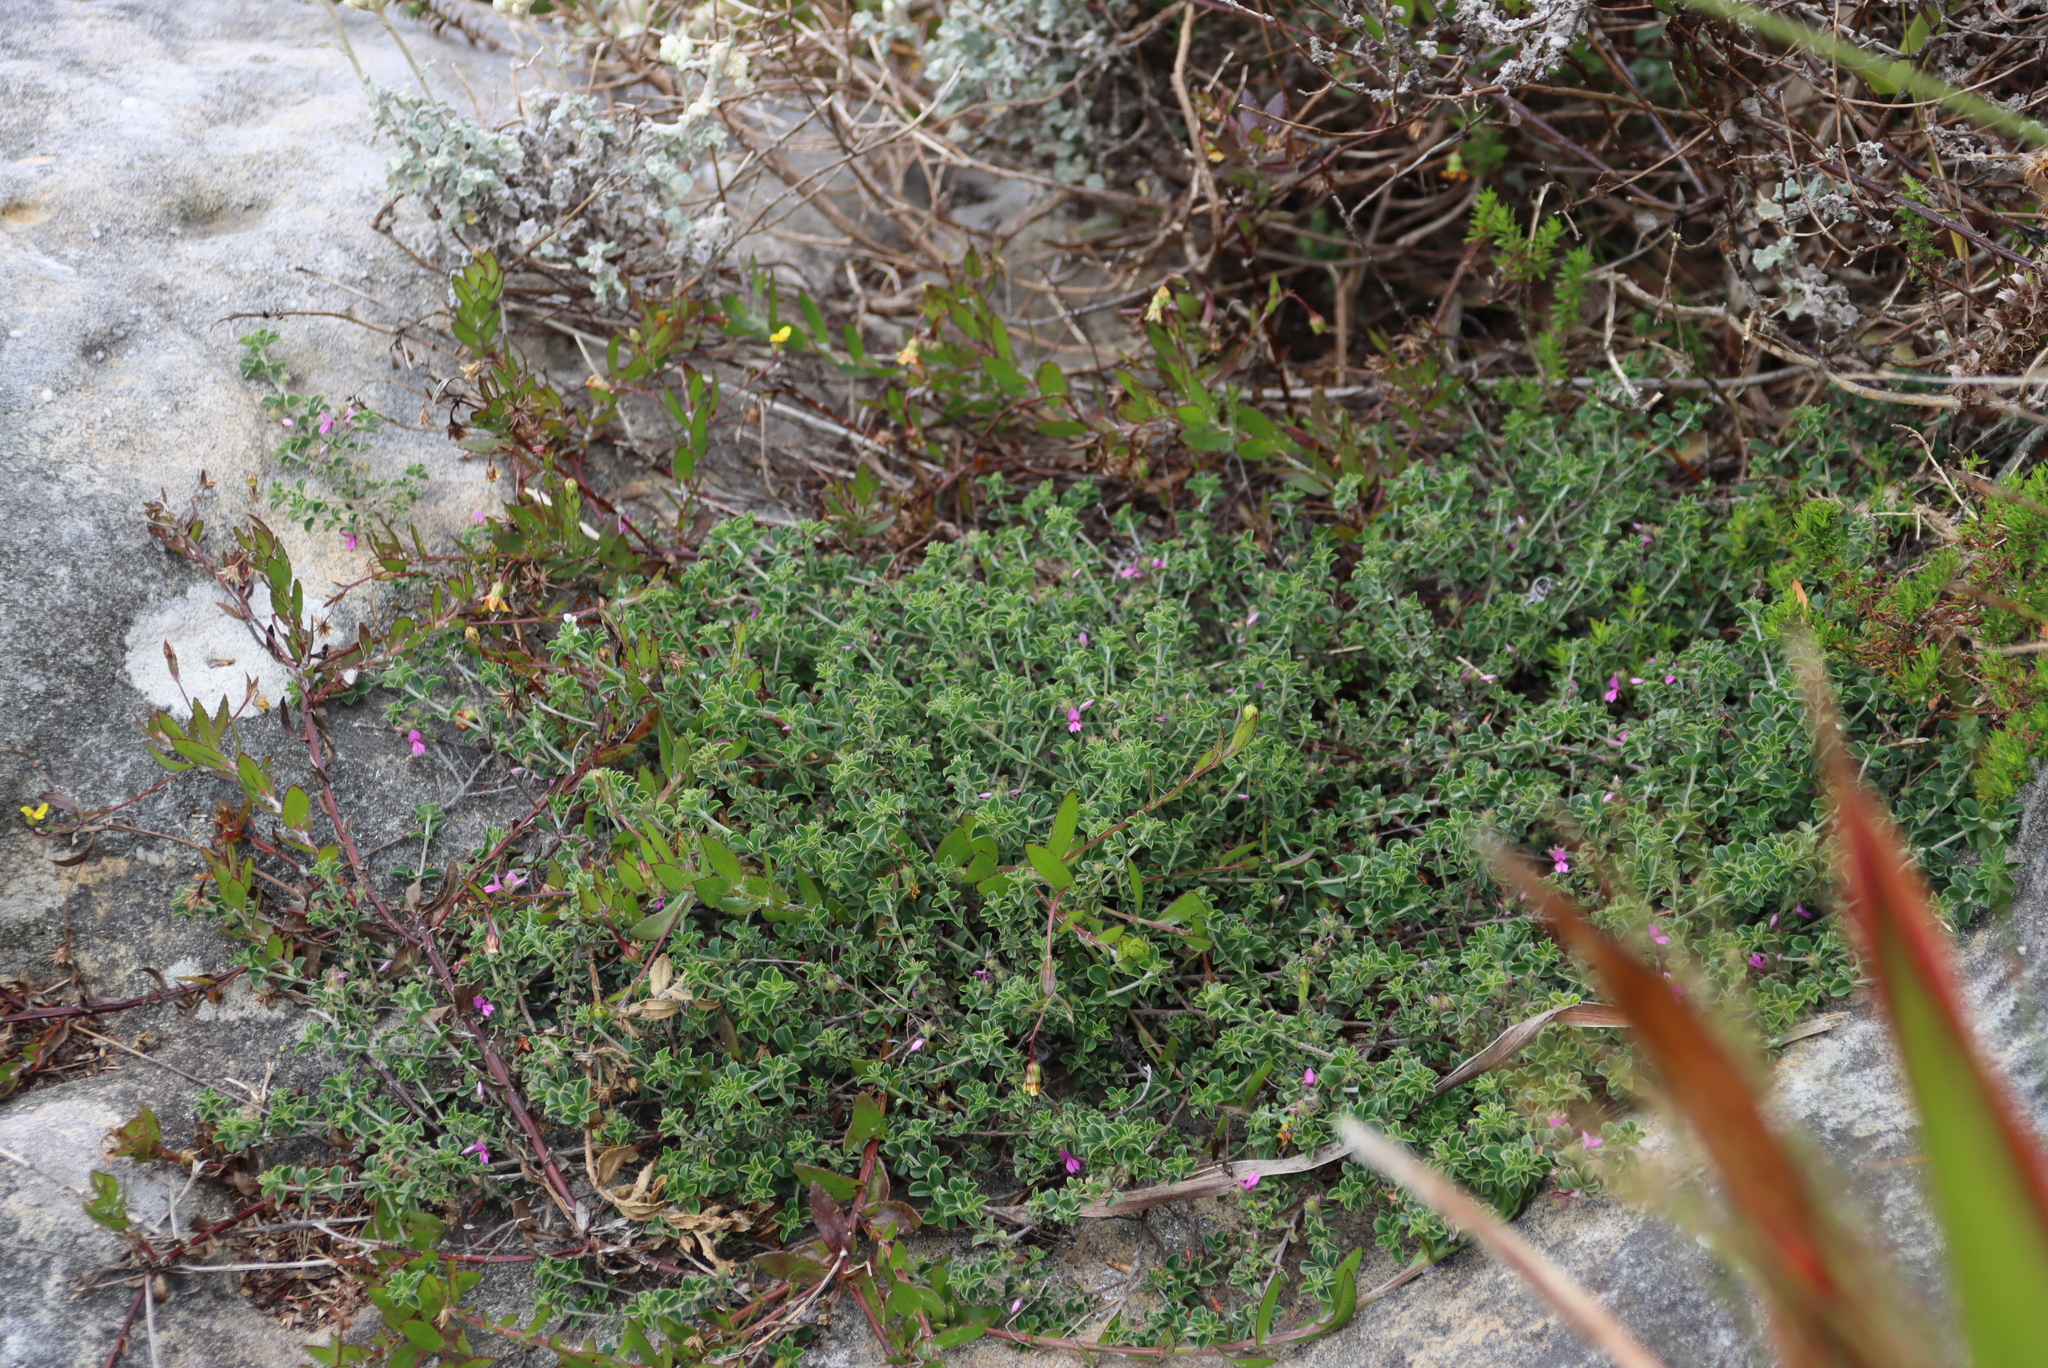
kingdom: Plantae
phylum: Tracheophyta
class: Magnoliopsida
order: Fabales
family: Fabaceae
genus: Indigofera
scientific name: Indigofera candolleana
